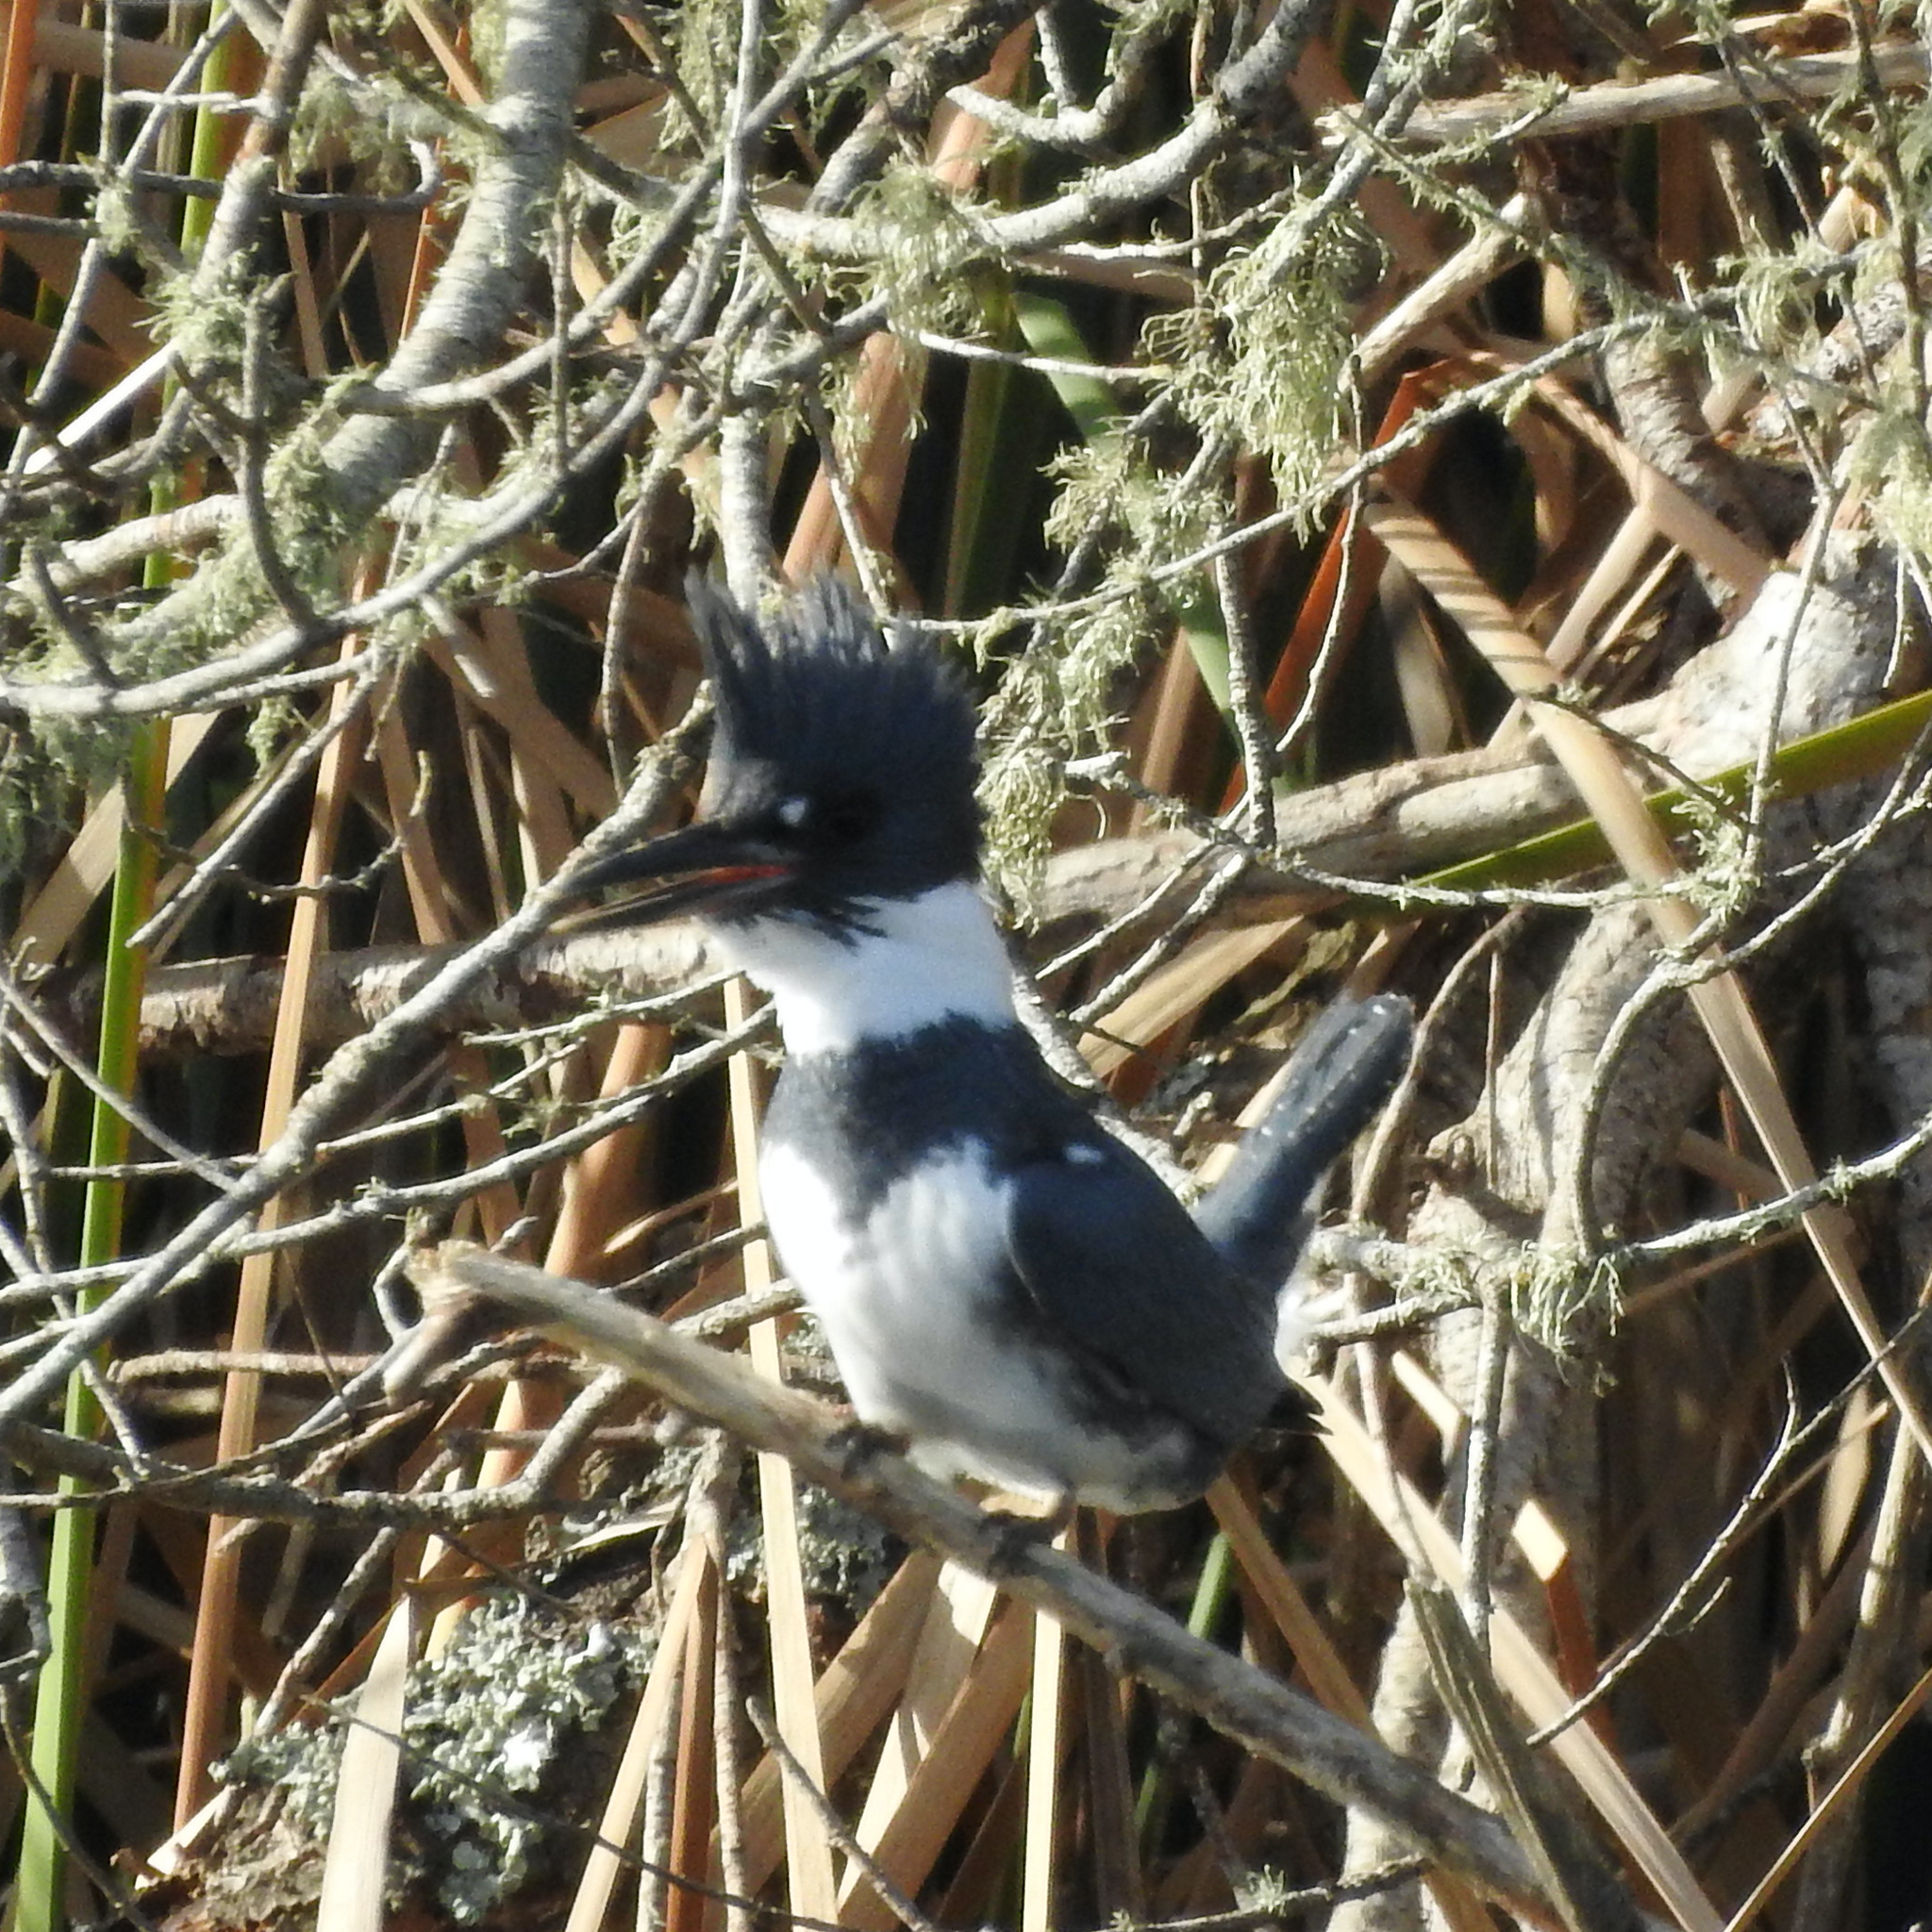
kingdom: Animalia
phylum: Chordata
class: Aves
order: Coraciiformes
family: Alcedinidae
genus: Megaceryle
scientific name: Megaceryle alcyon
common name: Belted kingfisher
